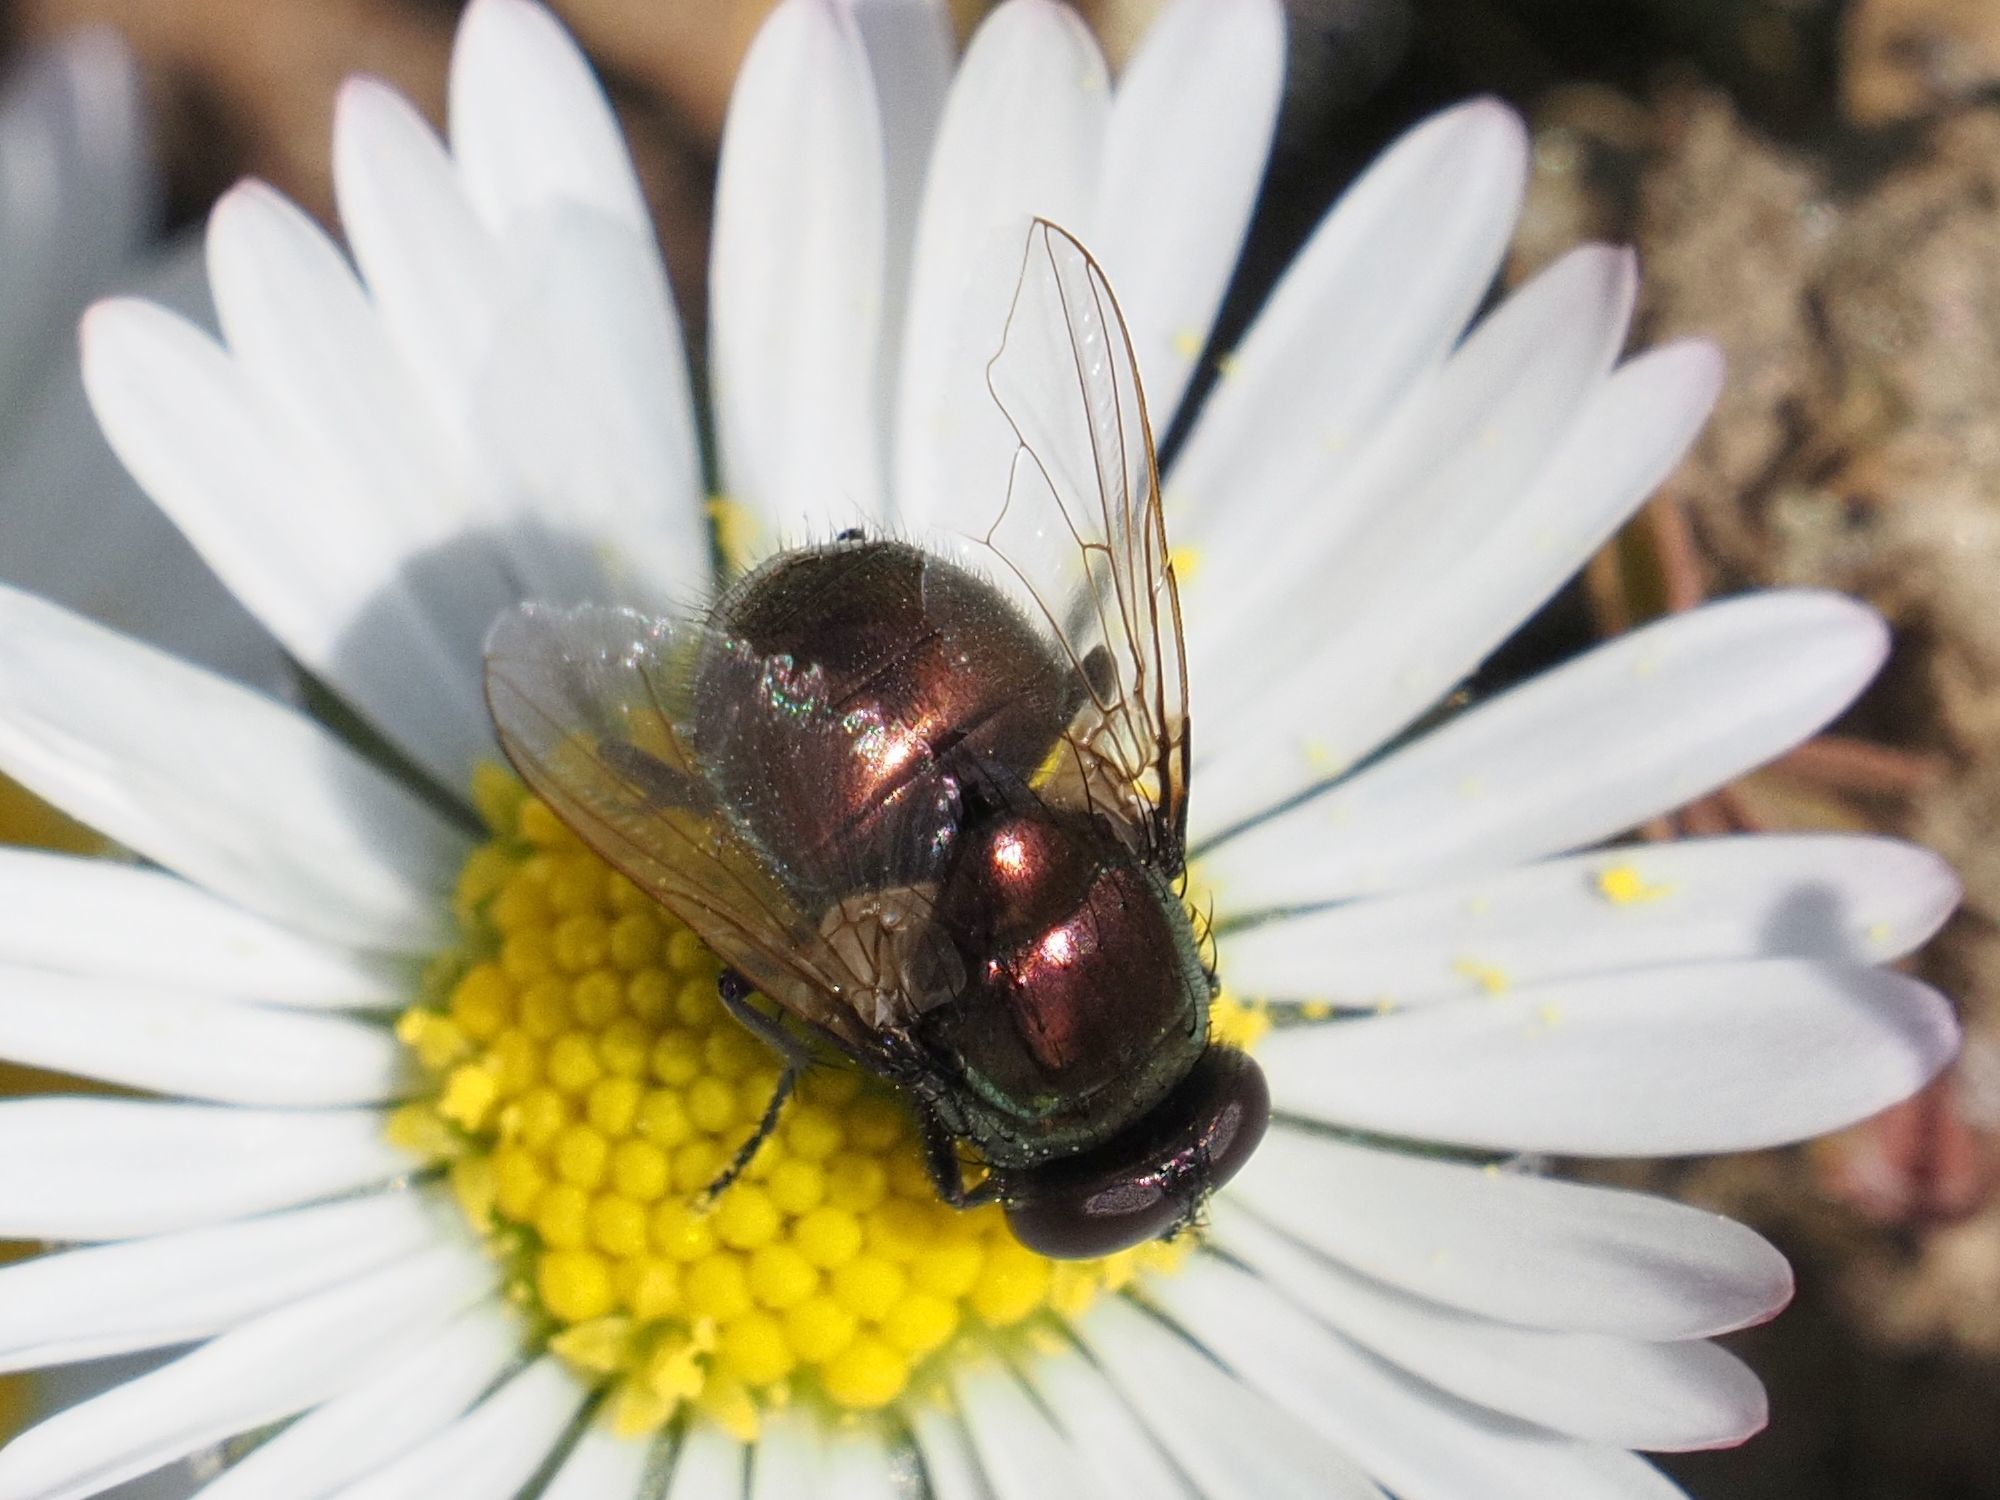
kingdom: Animalia
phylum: Arthropoda
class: Insecta
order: Diptera
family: Muscidae
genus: Neomyia
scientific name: Neomyia cornicina
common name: House fly
